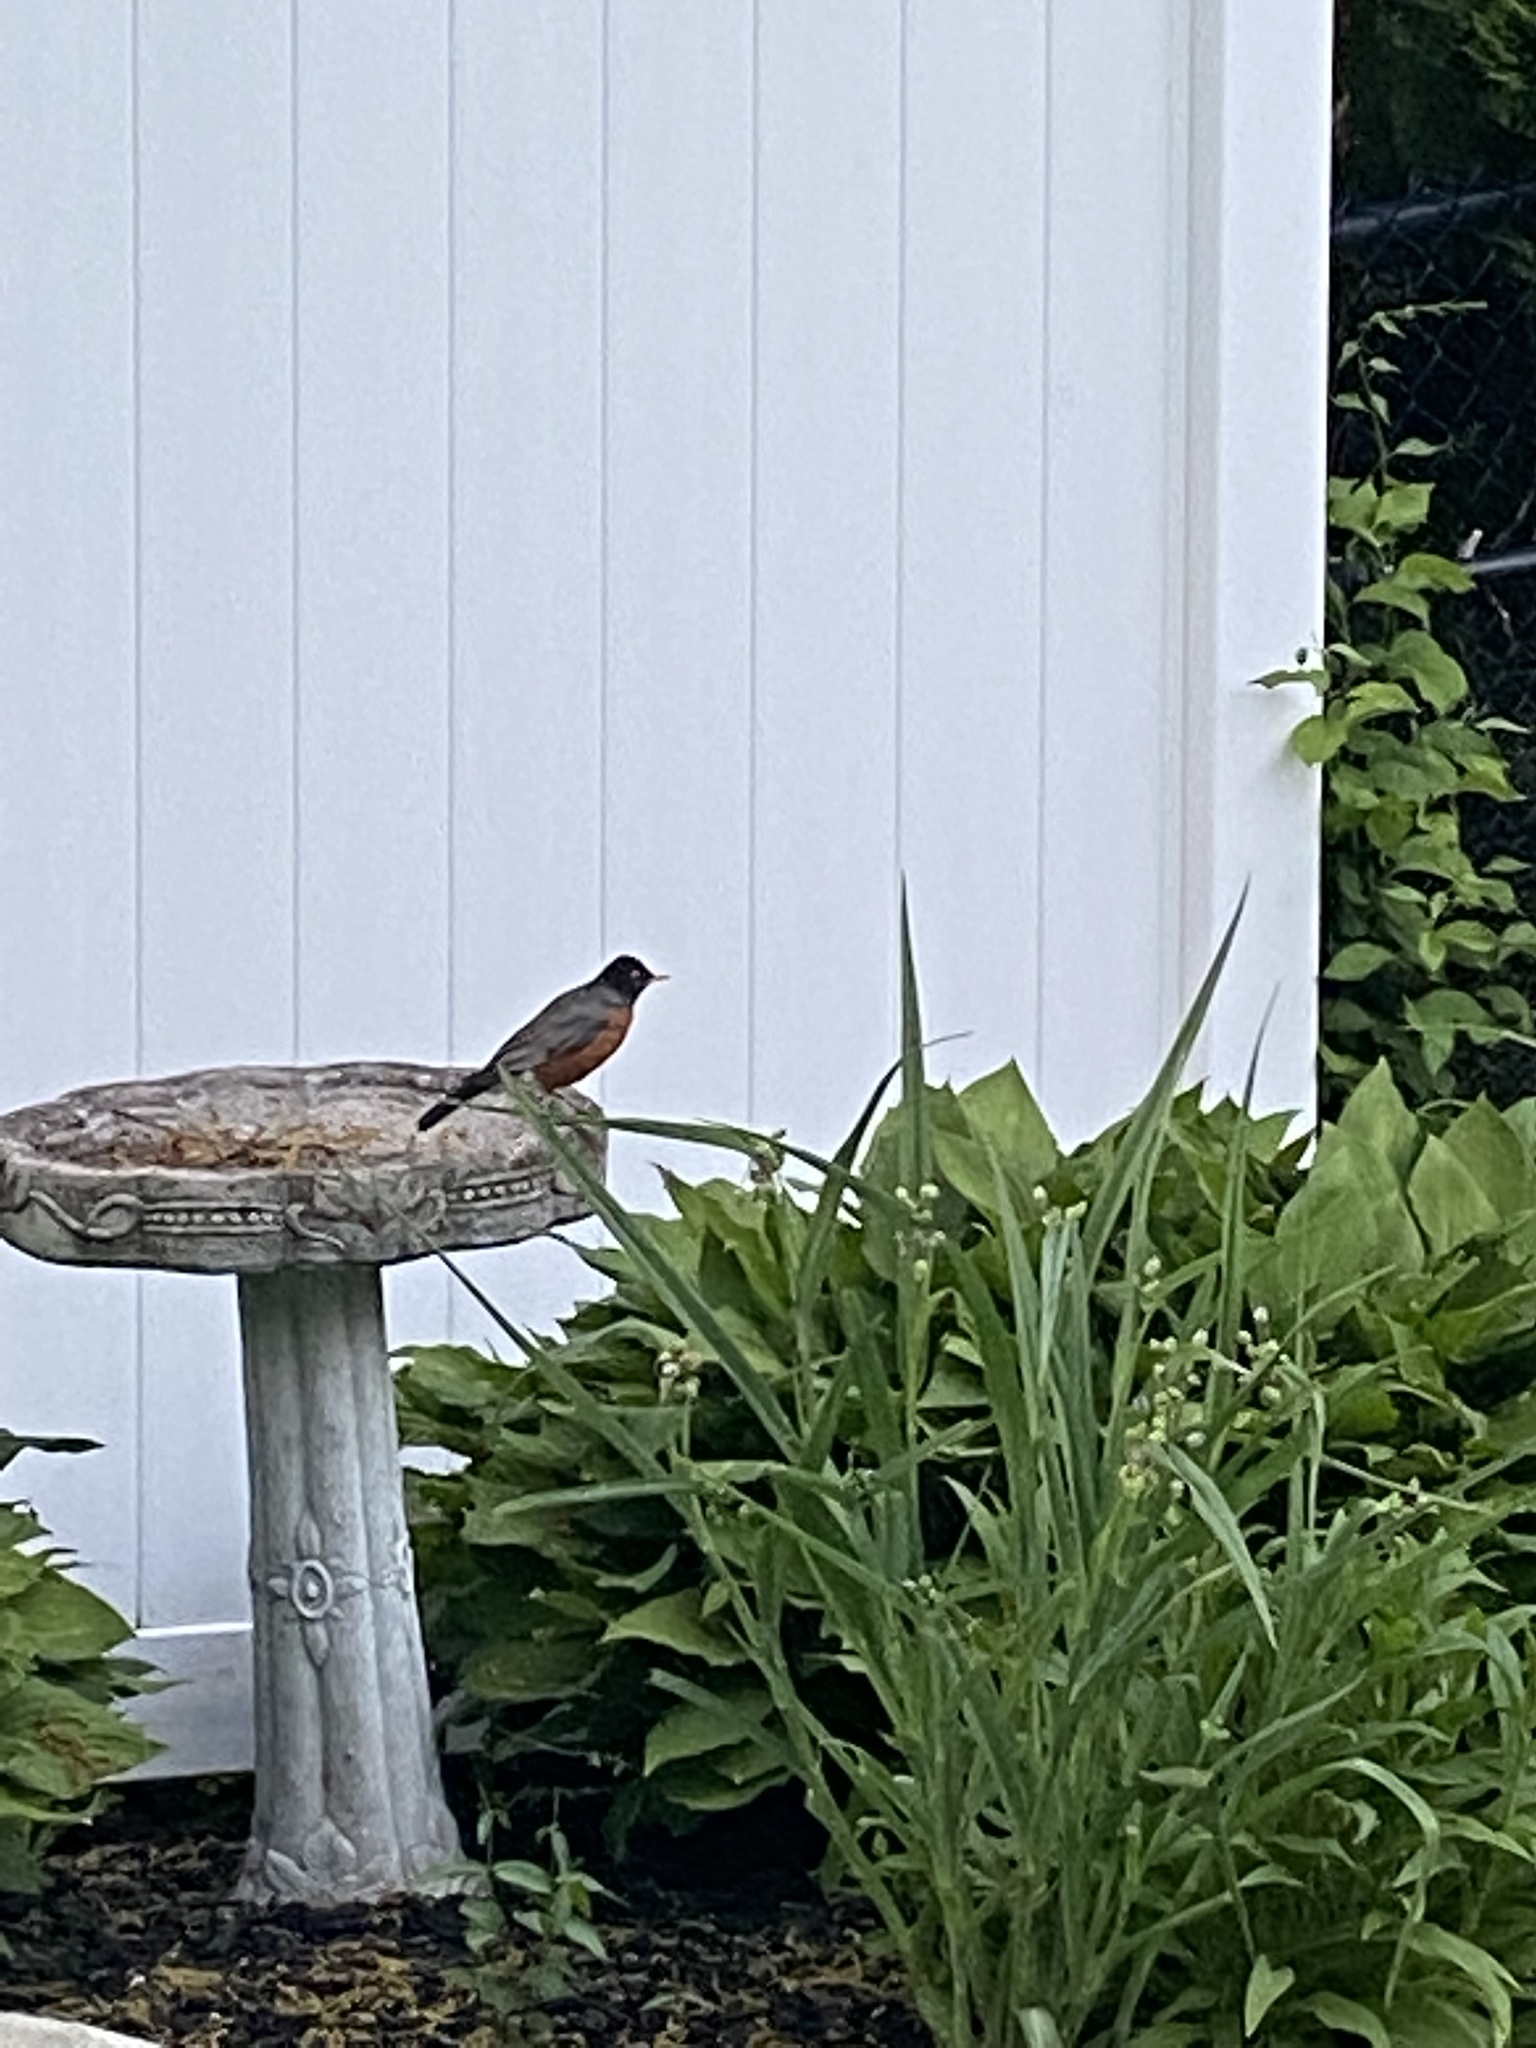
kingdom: Animalia
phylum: Chordata
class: Aves
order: Passeriformes
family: Turdidae
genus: Turdus
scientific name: Turdus migratorius
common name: American robin
